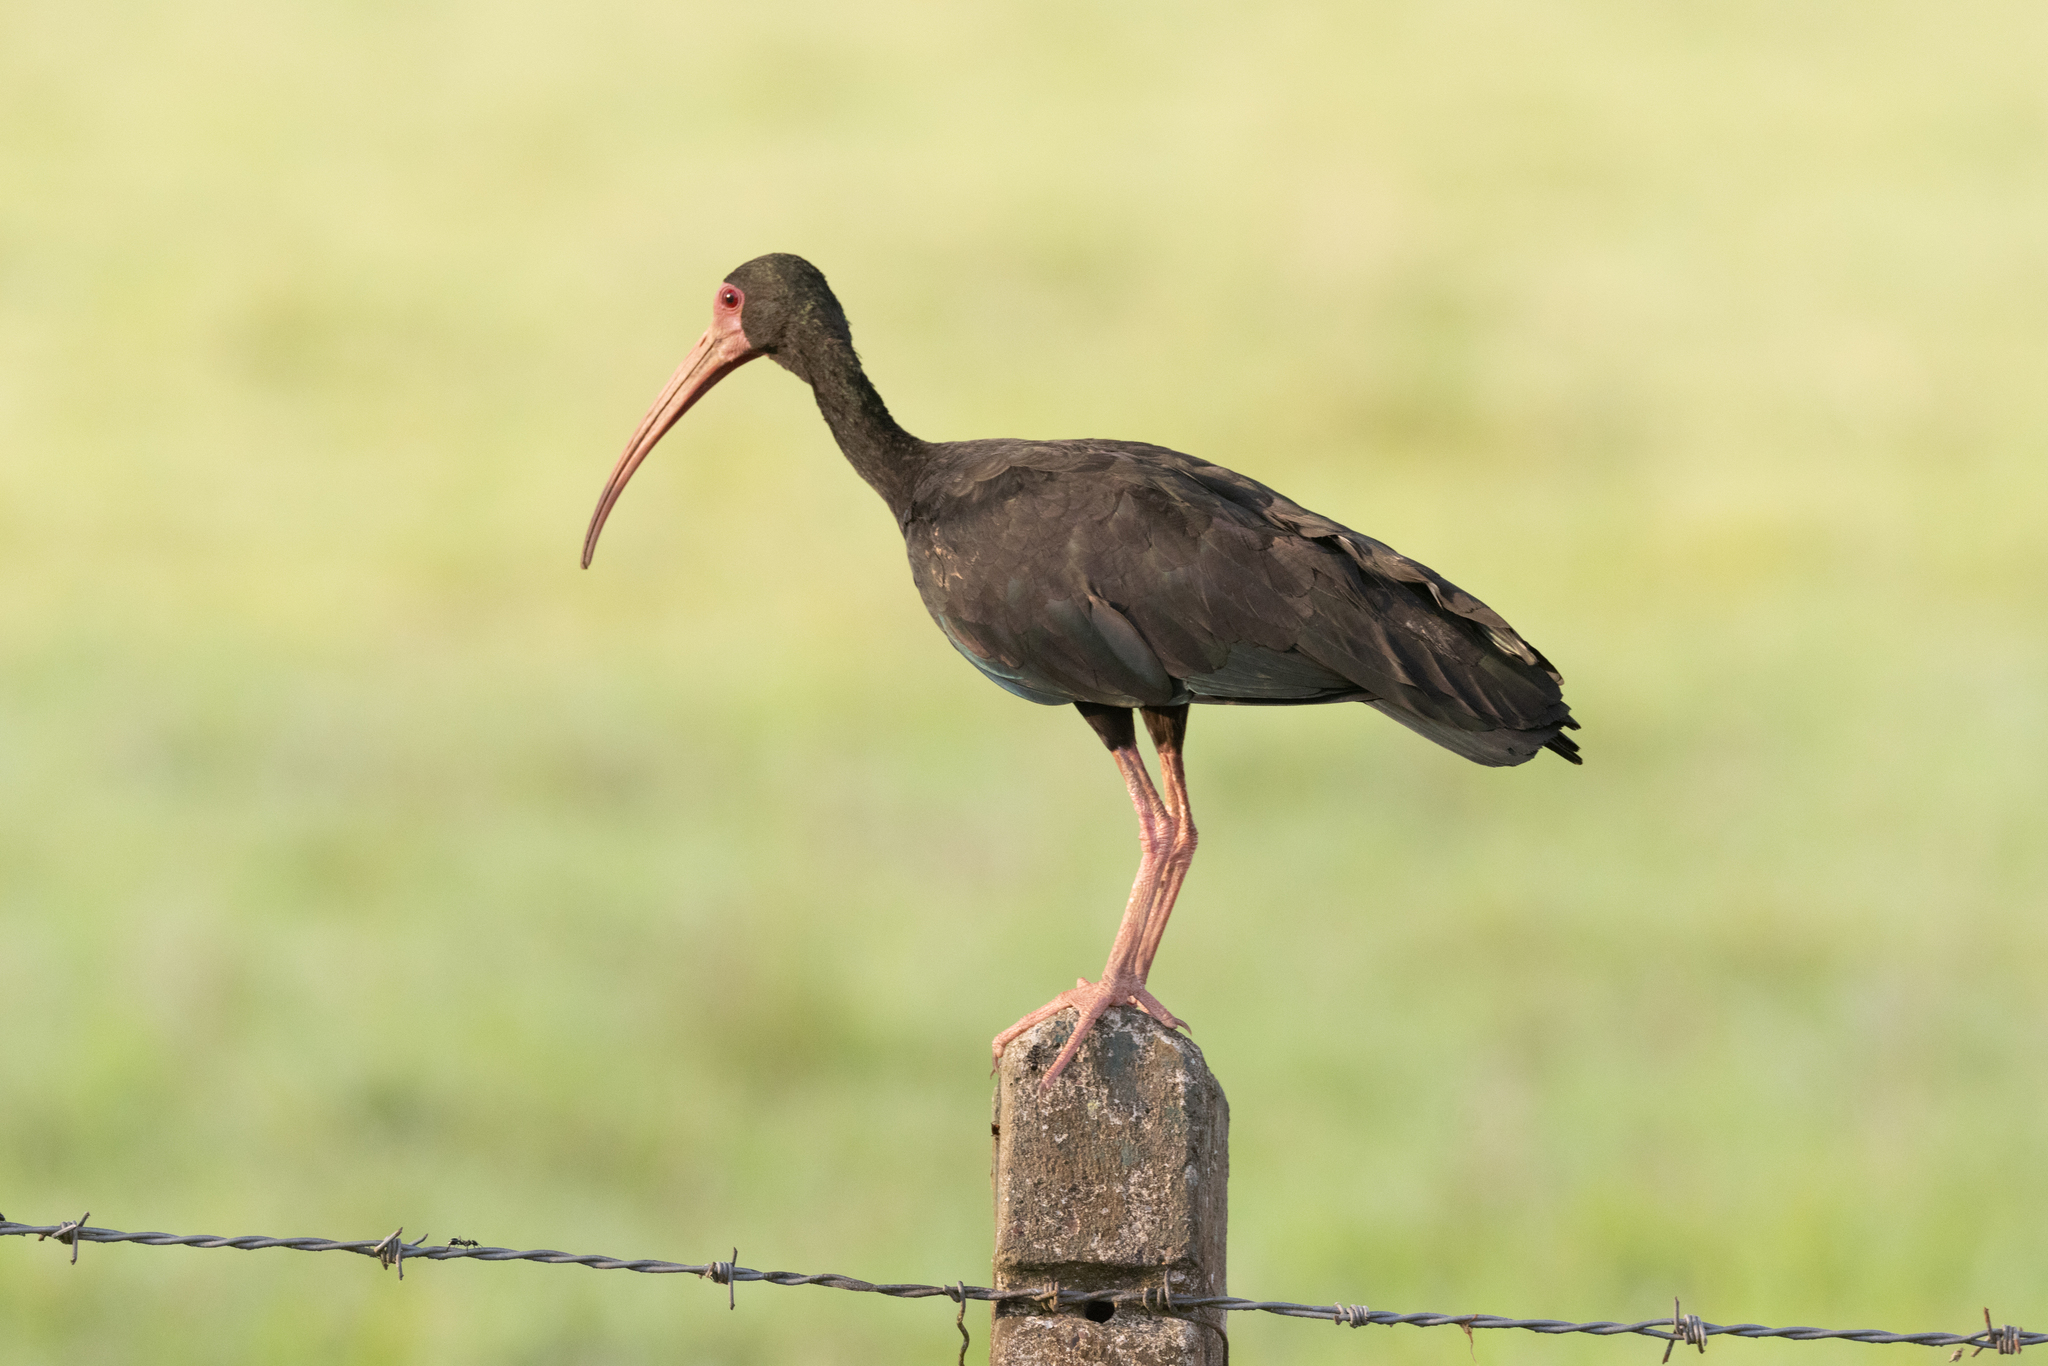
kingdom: Animalia
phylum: Chordata
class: Aves
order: Pelecaniformes
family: Threskiornithidae
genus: Phimosus
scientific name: Phimosus infuscatus
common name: Bare-faced ibis
